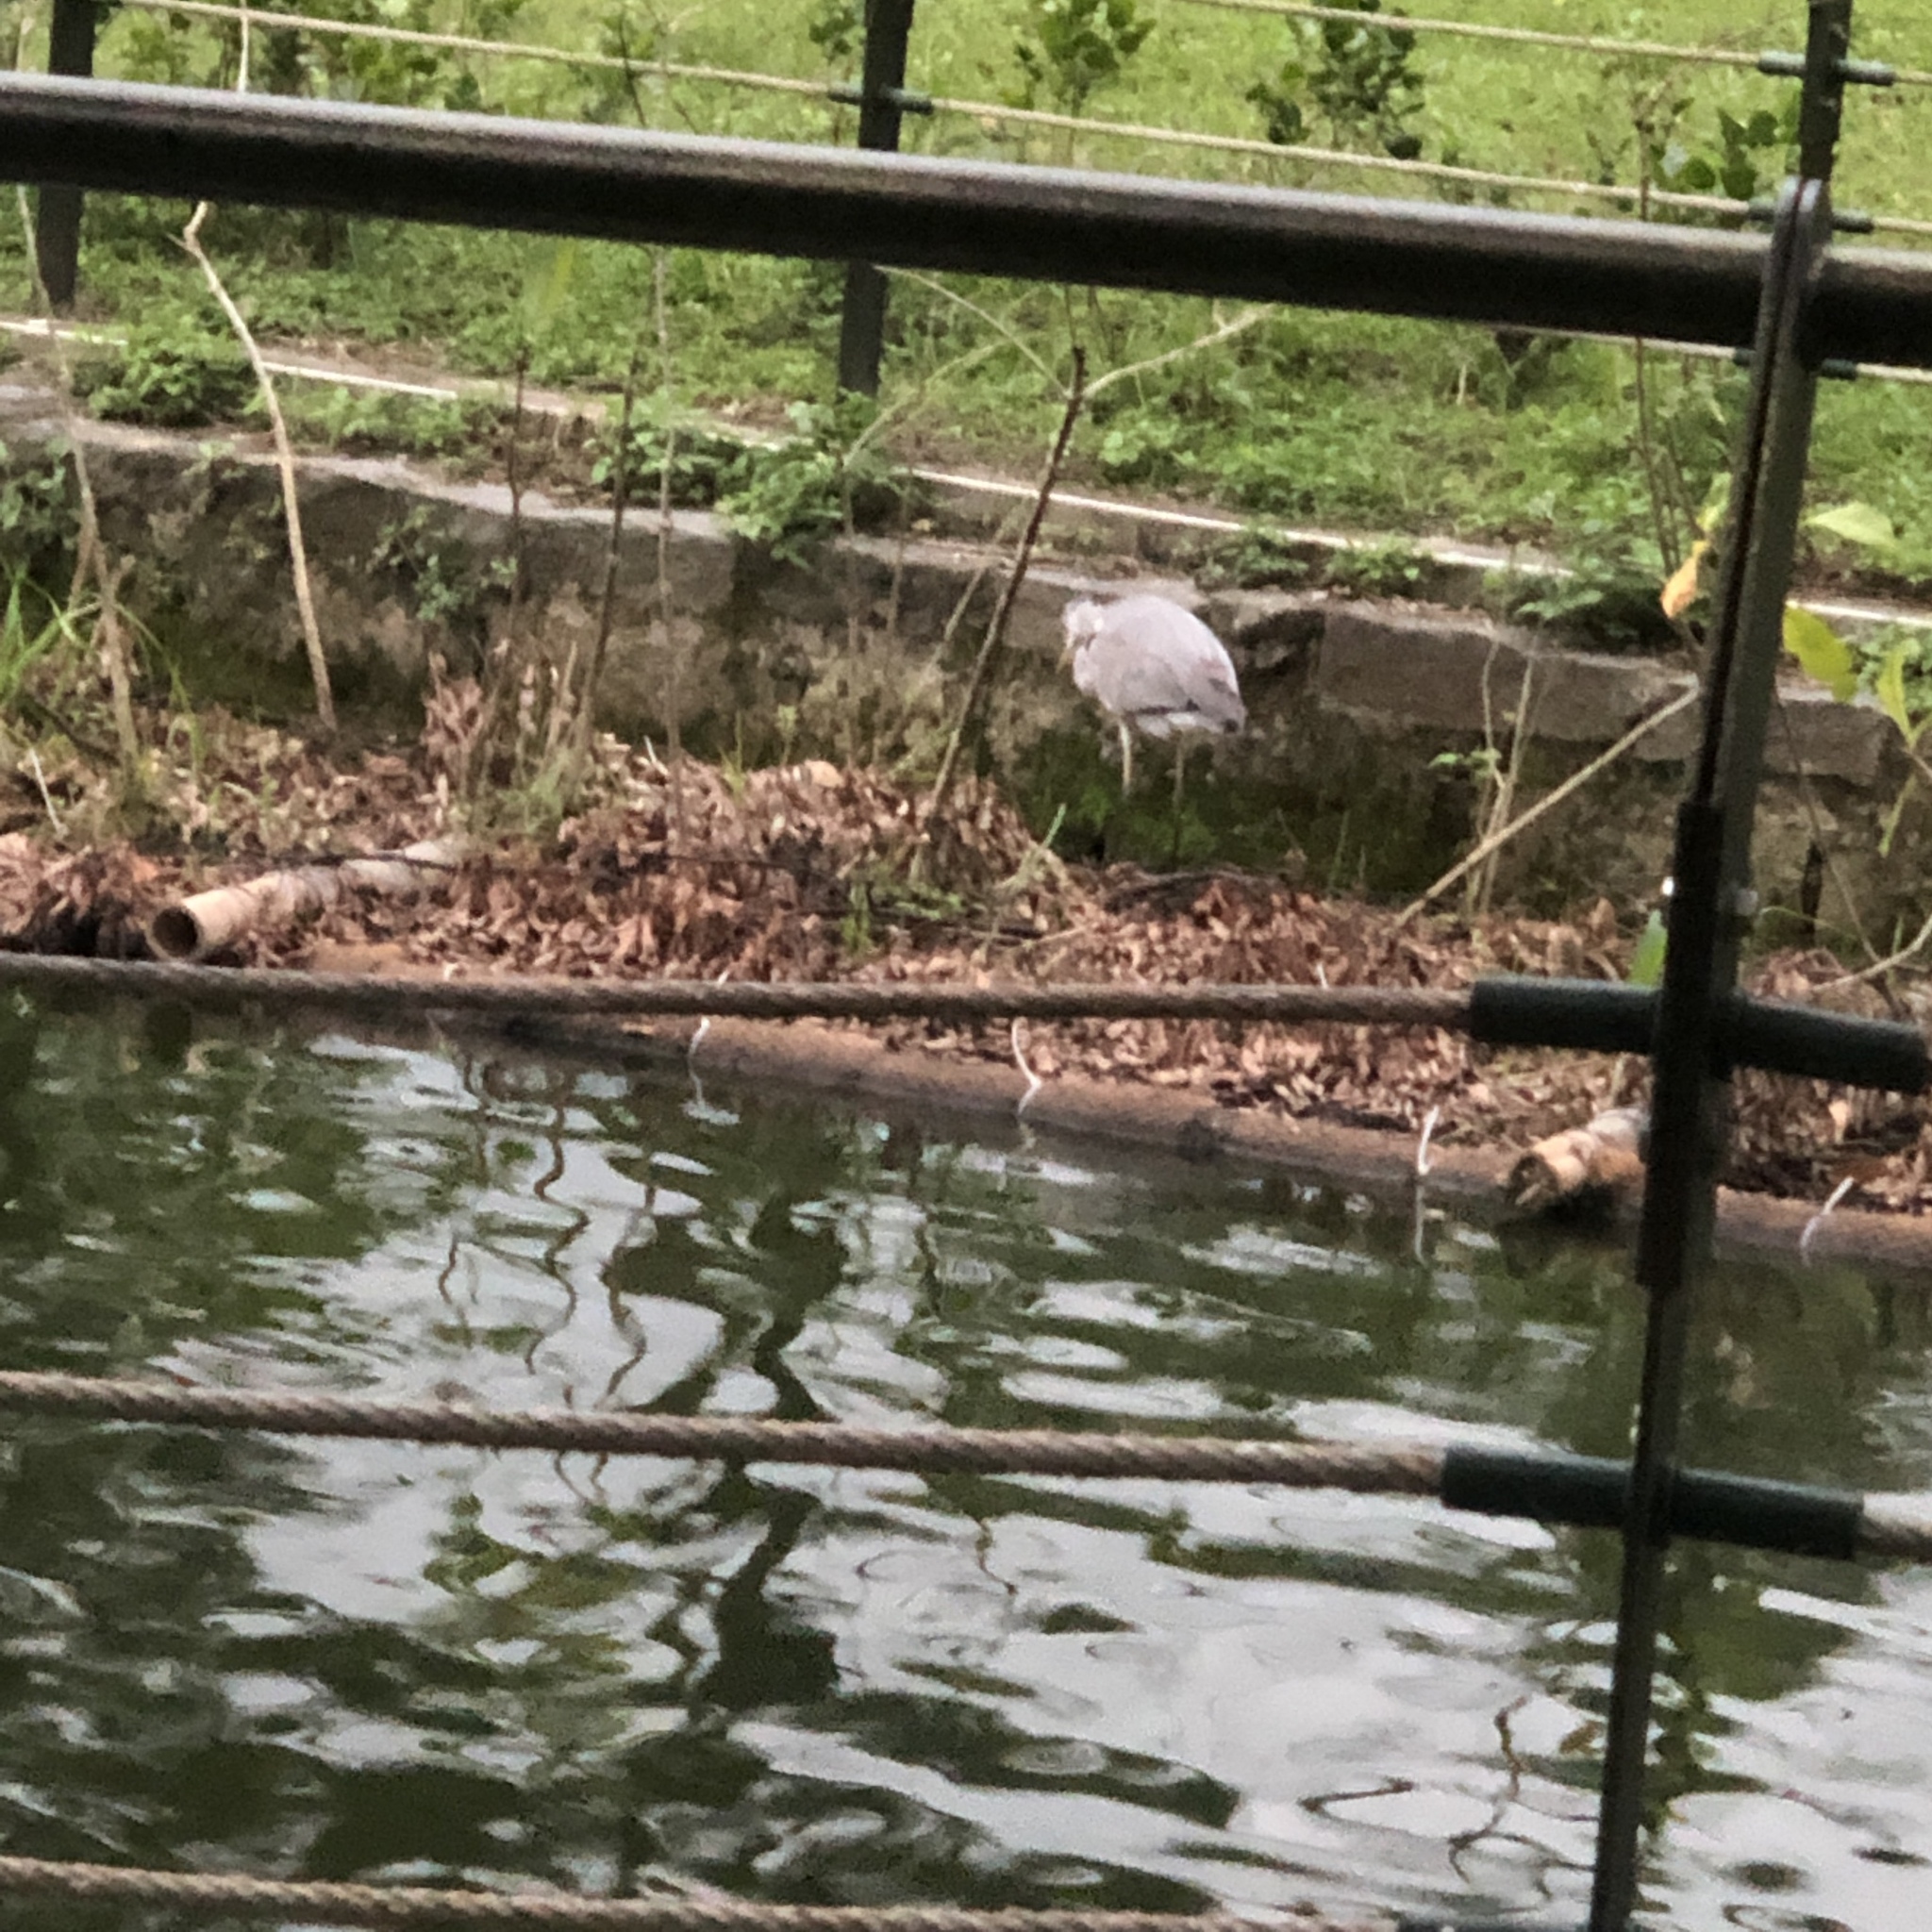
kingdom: Animalia
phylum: Chordata
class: Aves
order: Pelecaniformes
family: Ardeidae
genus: Ardea
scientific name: Ardea cinerea
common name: Grey heron
